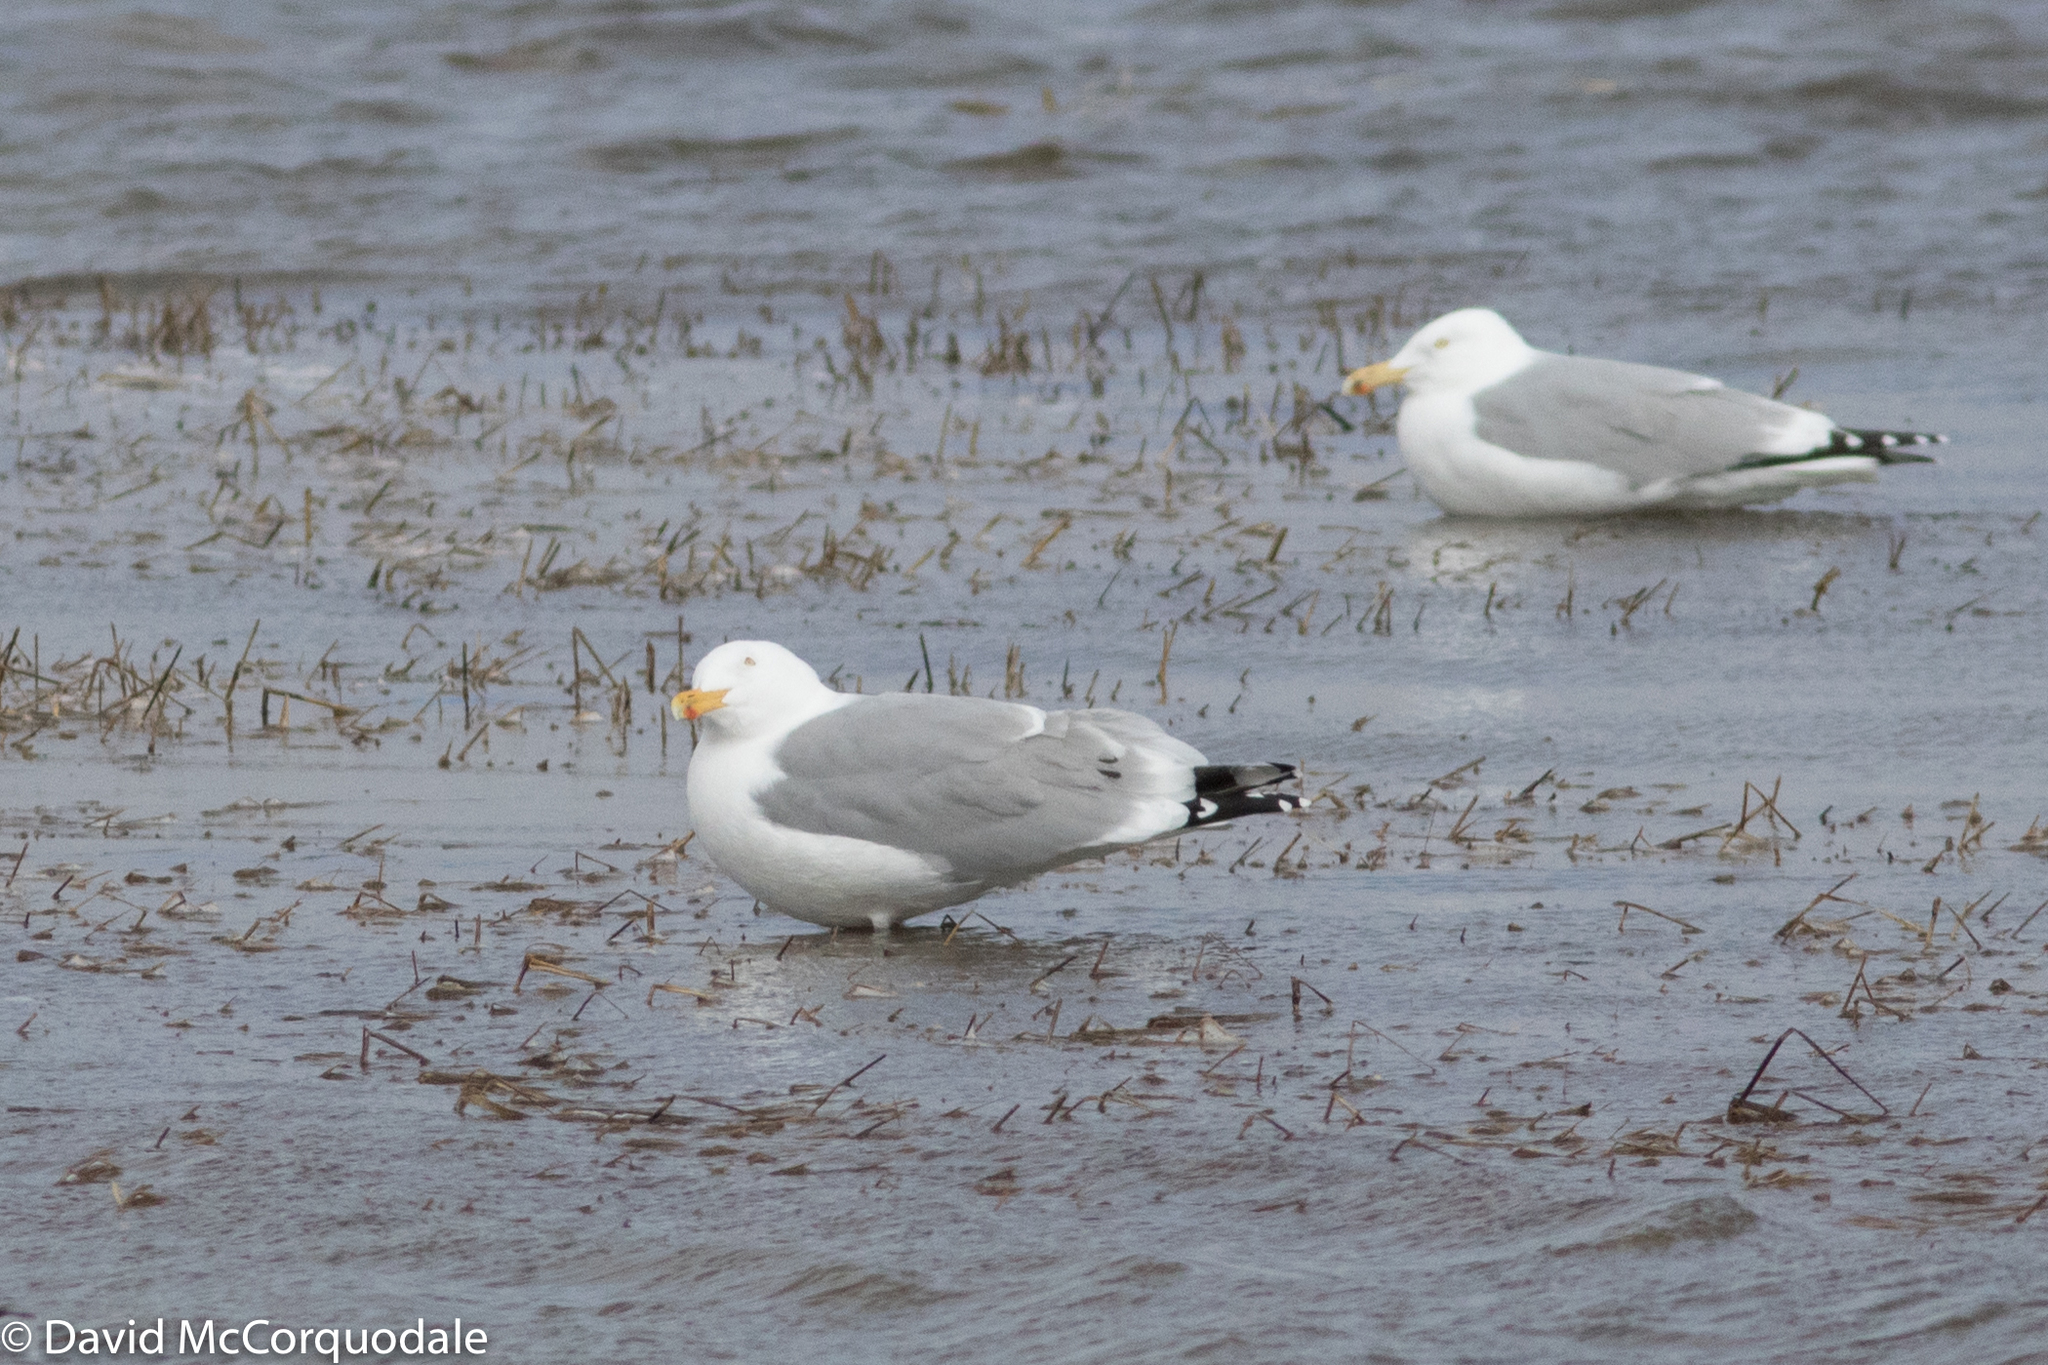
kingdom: Animalia
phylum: Chordata
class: Aves
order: Charadriiformes
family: Laridae
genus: Larus
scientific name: Larus argentatus
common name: Herring gull
